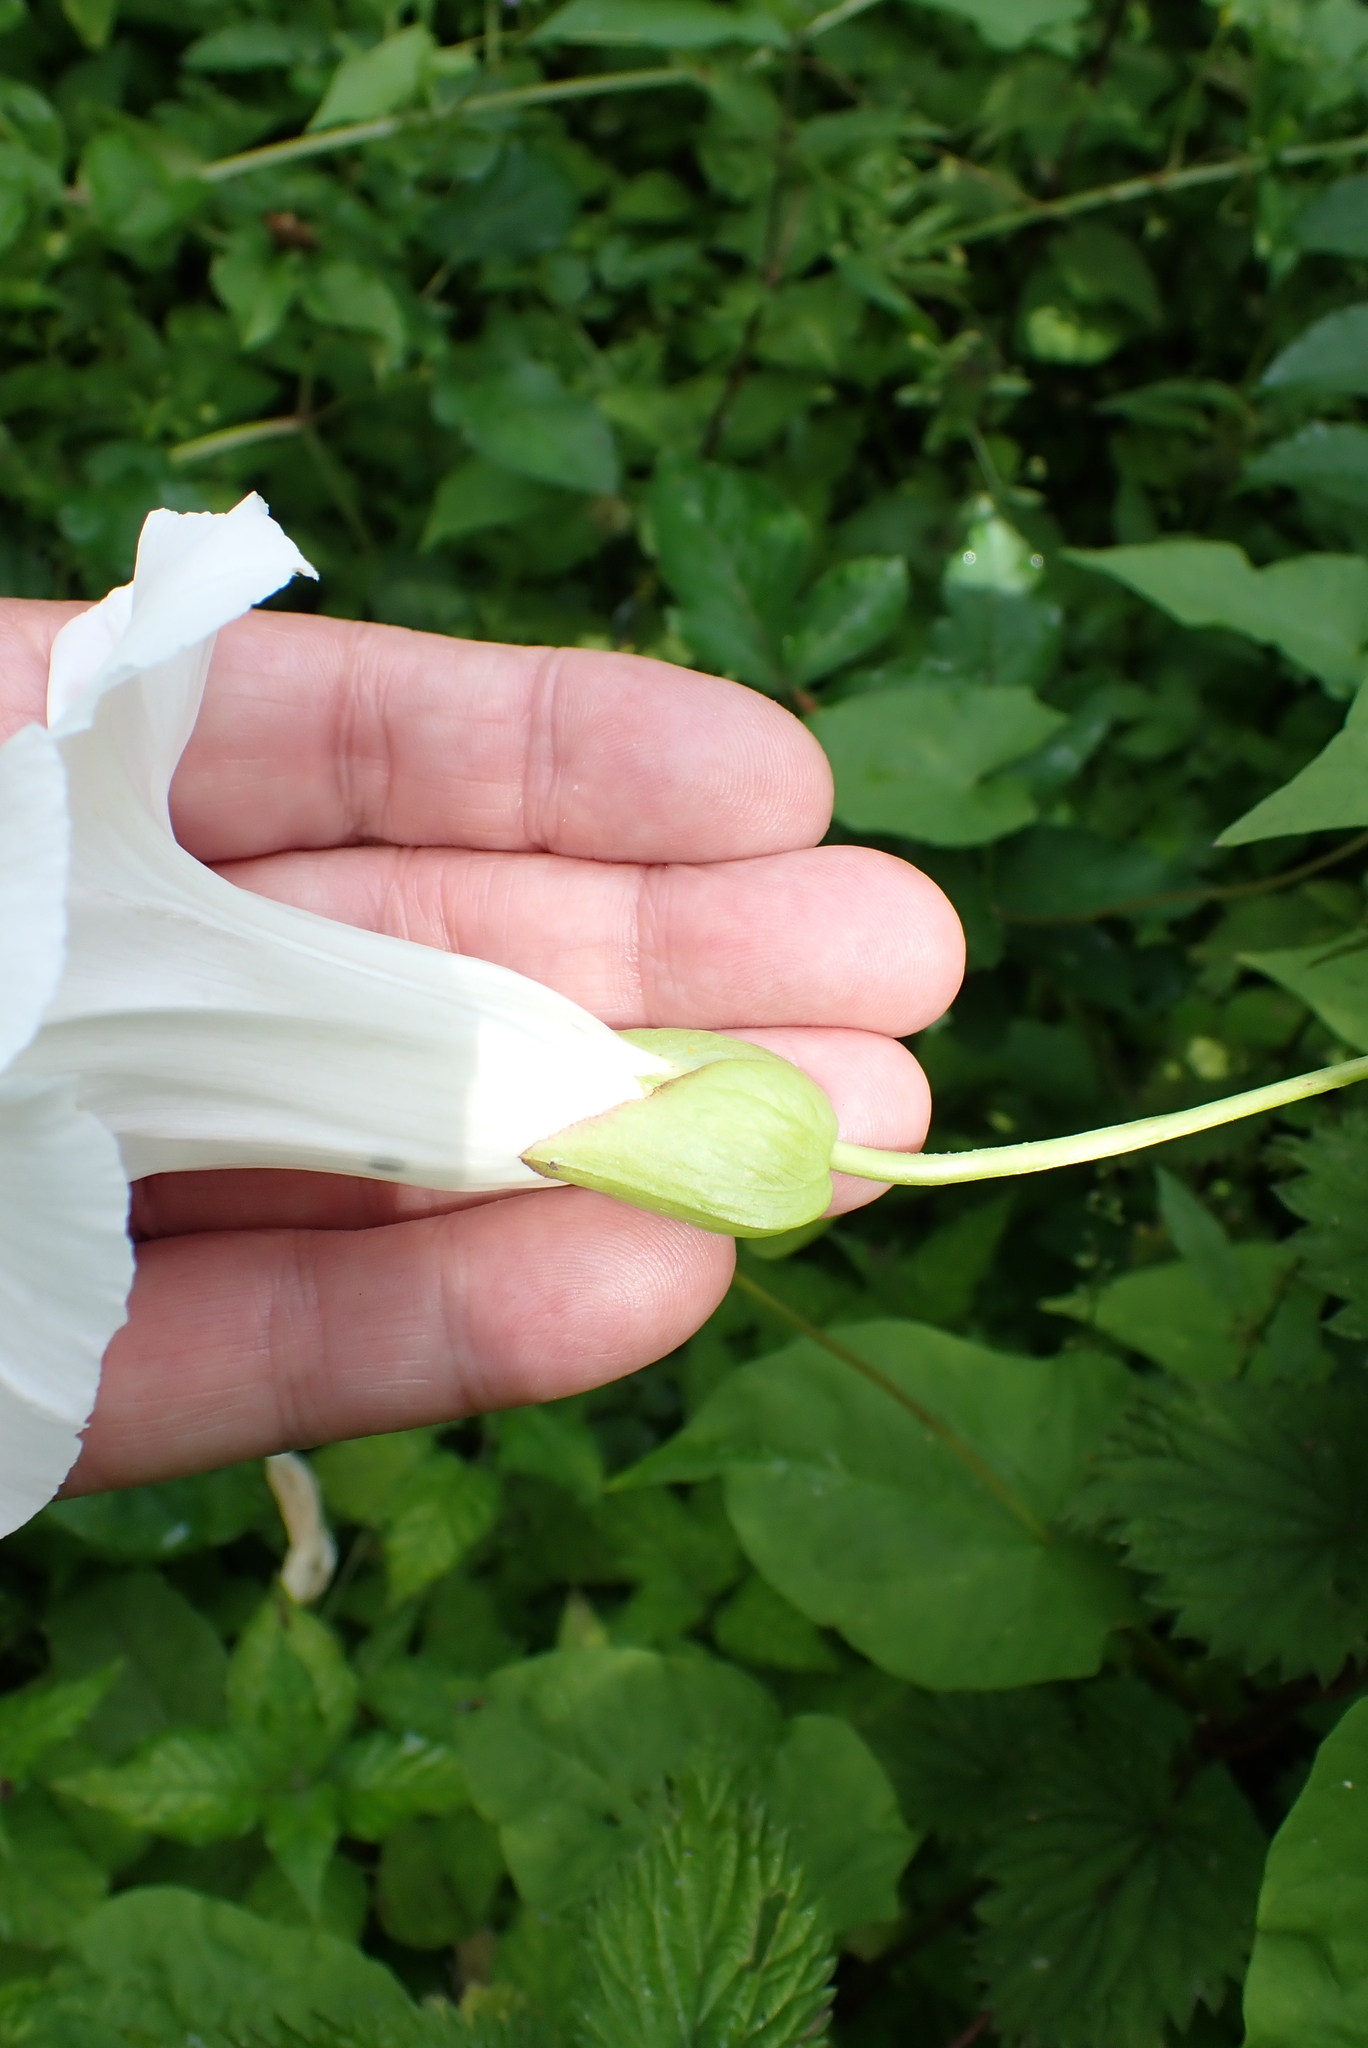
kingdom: Plantae
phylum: Tracheophyta
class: Magnoliopsida
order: Solanales
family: Convolvulaceae
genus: Calystegia
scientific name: Calystegia silvatica
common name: Large bindweed
